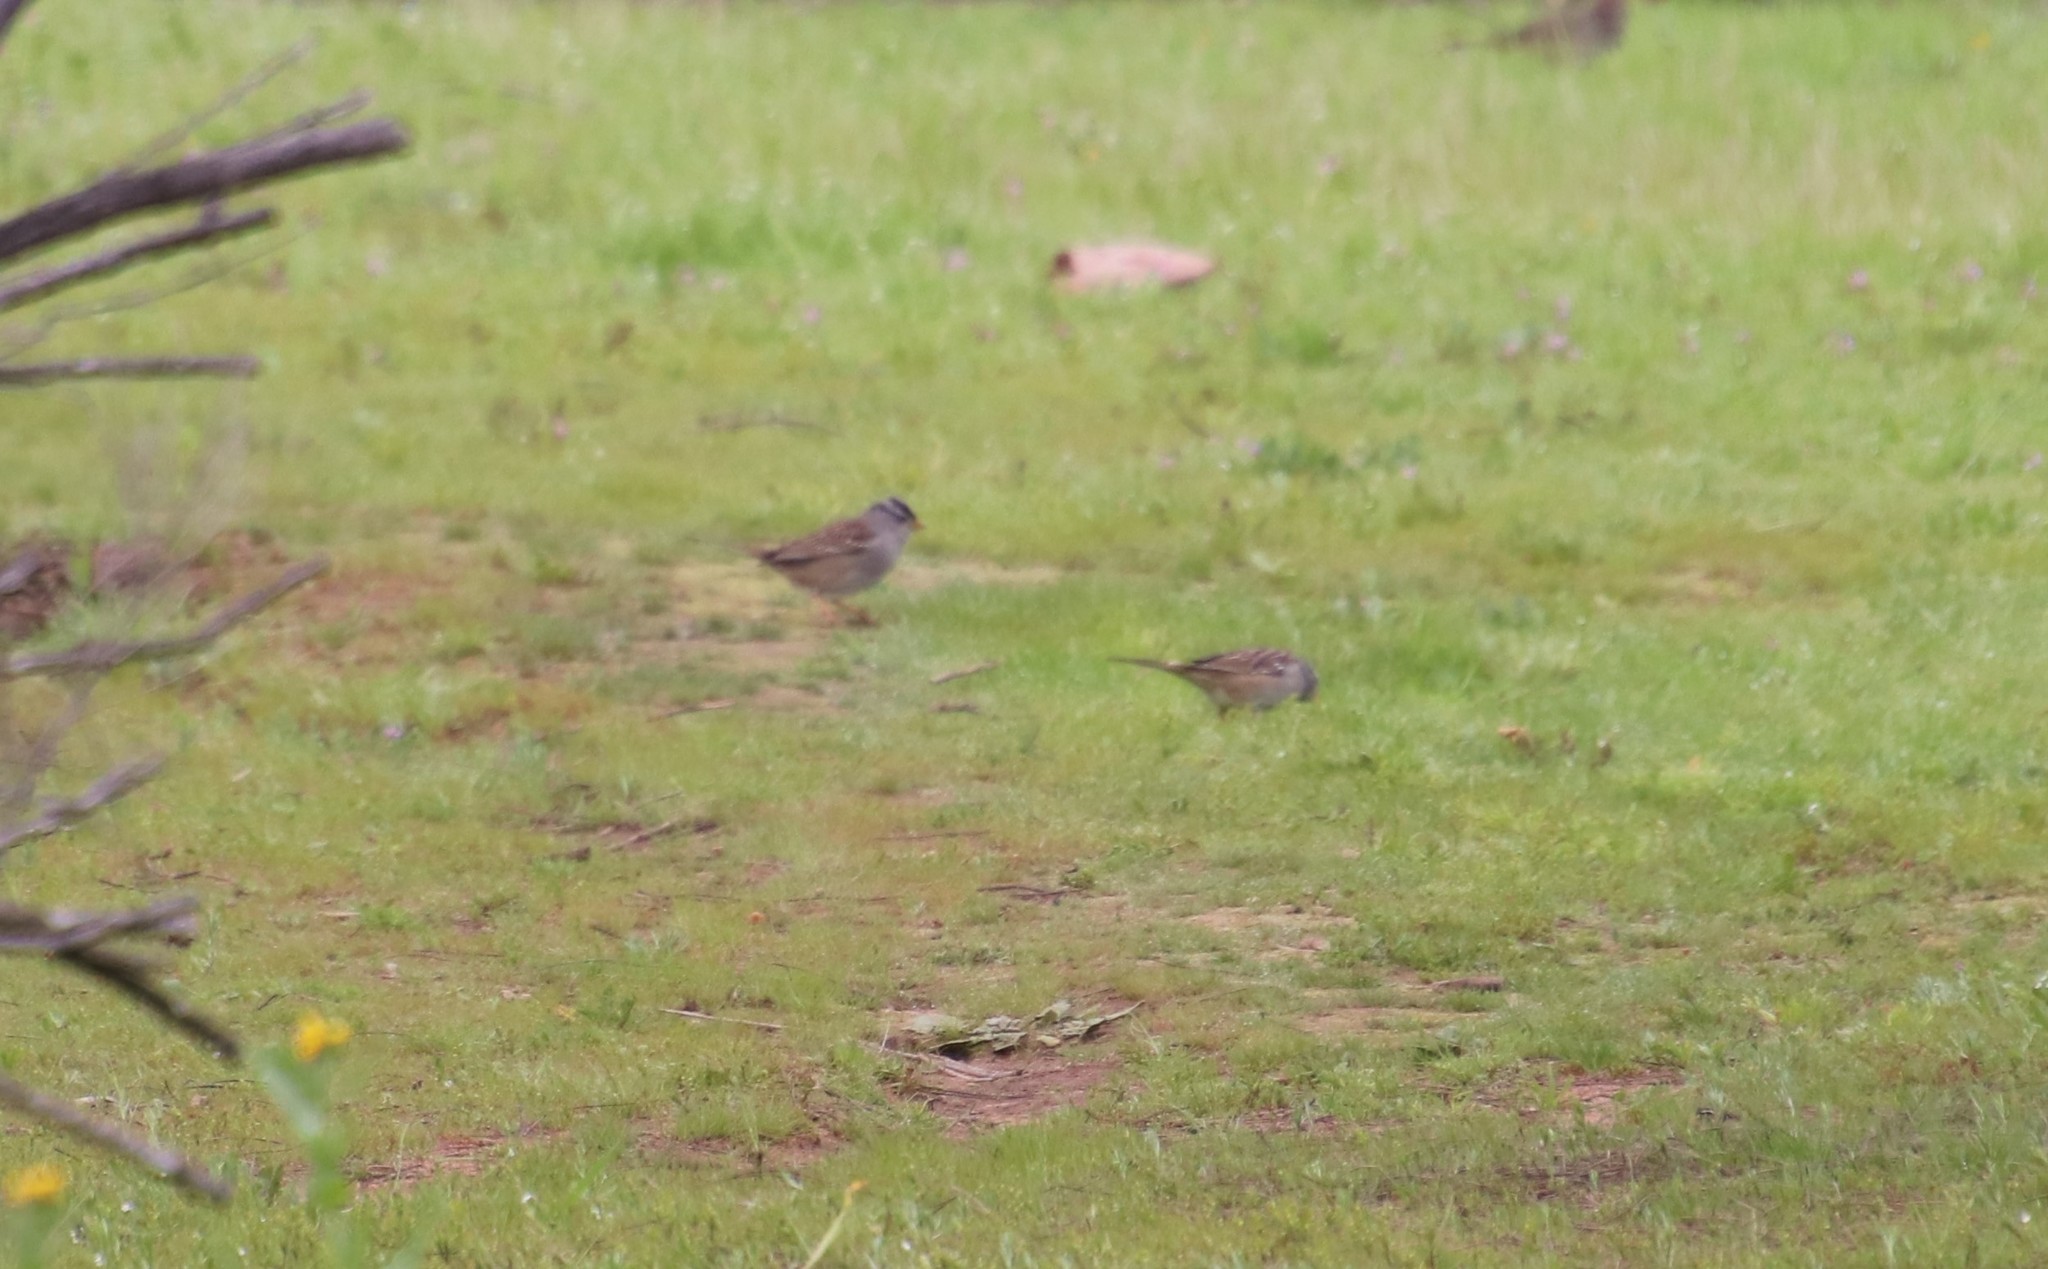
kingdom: Animalia
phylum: Chordata
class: Aves
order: Passeriformes
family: Passerellidae
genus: Zonotrichia
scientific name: Zonotrichia leucophrys
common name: White-crowned sparrow
